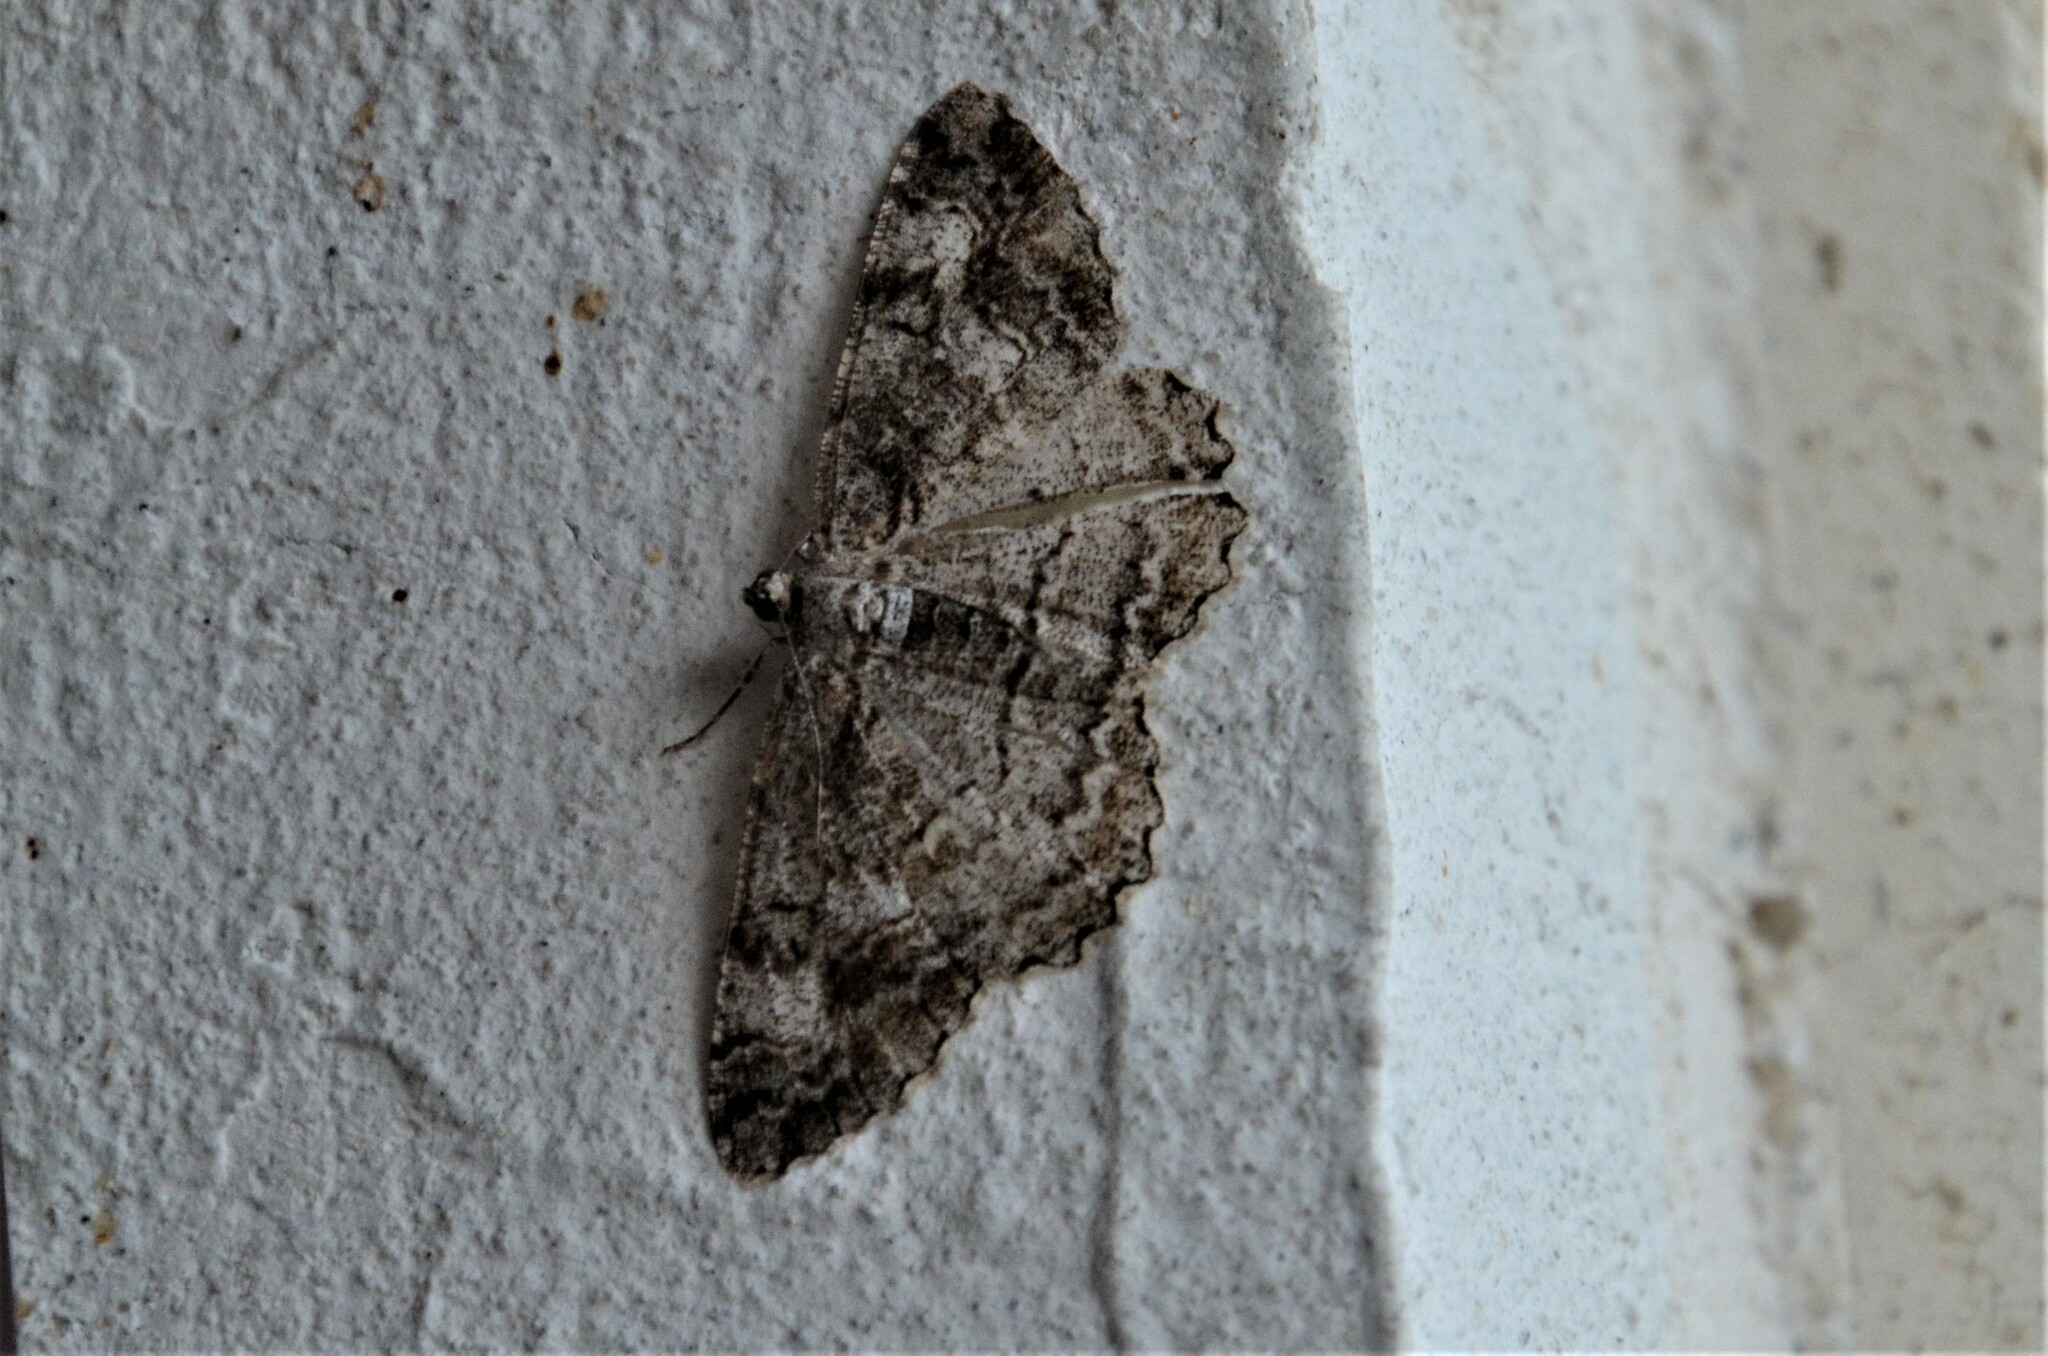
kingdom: Animalia
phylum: Arthropoda
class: Insecta
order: Lepidoptera
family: Geometridae
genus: Alcis
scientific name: Alcis repandata
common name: Mottled beauty
